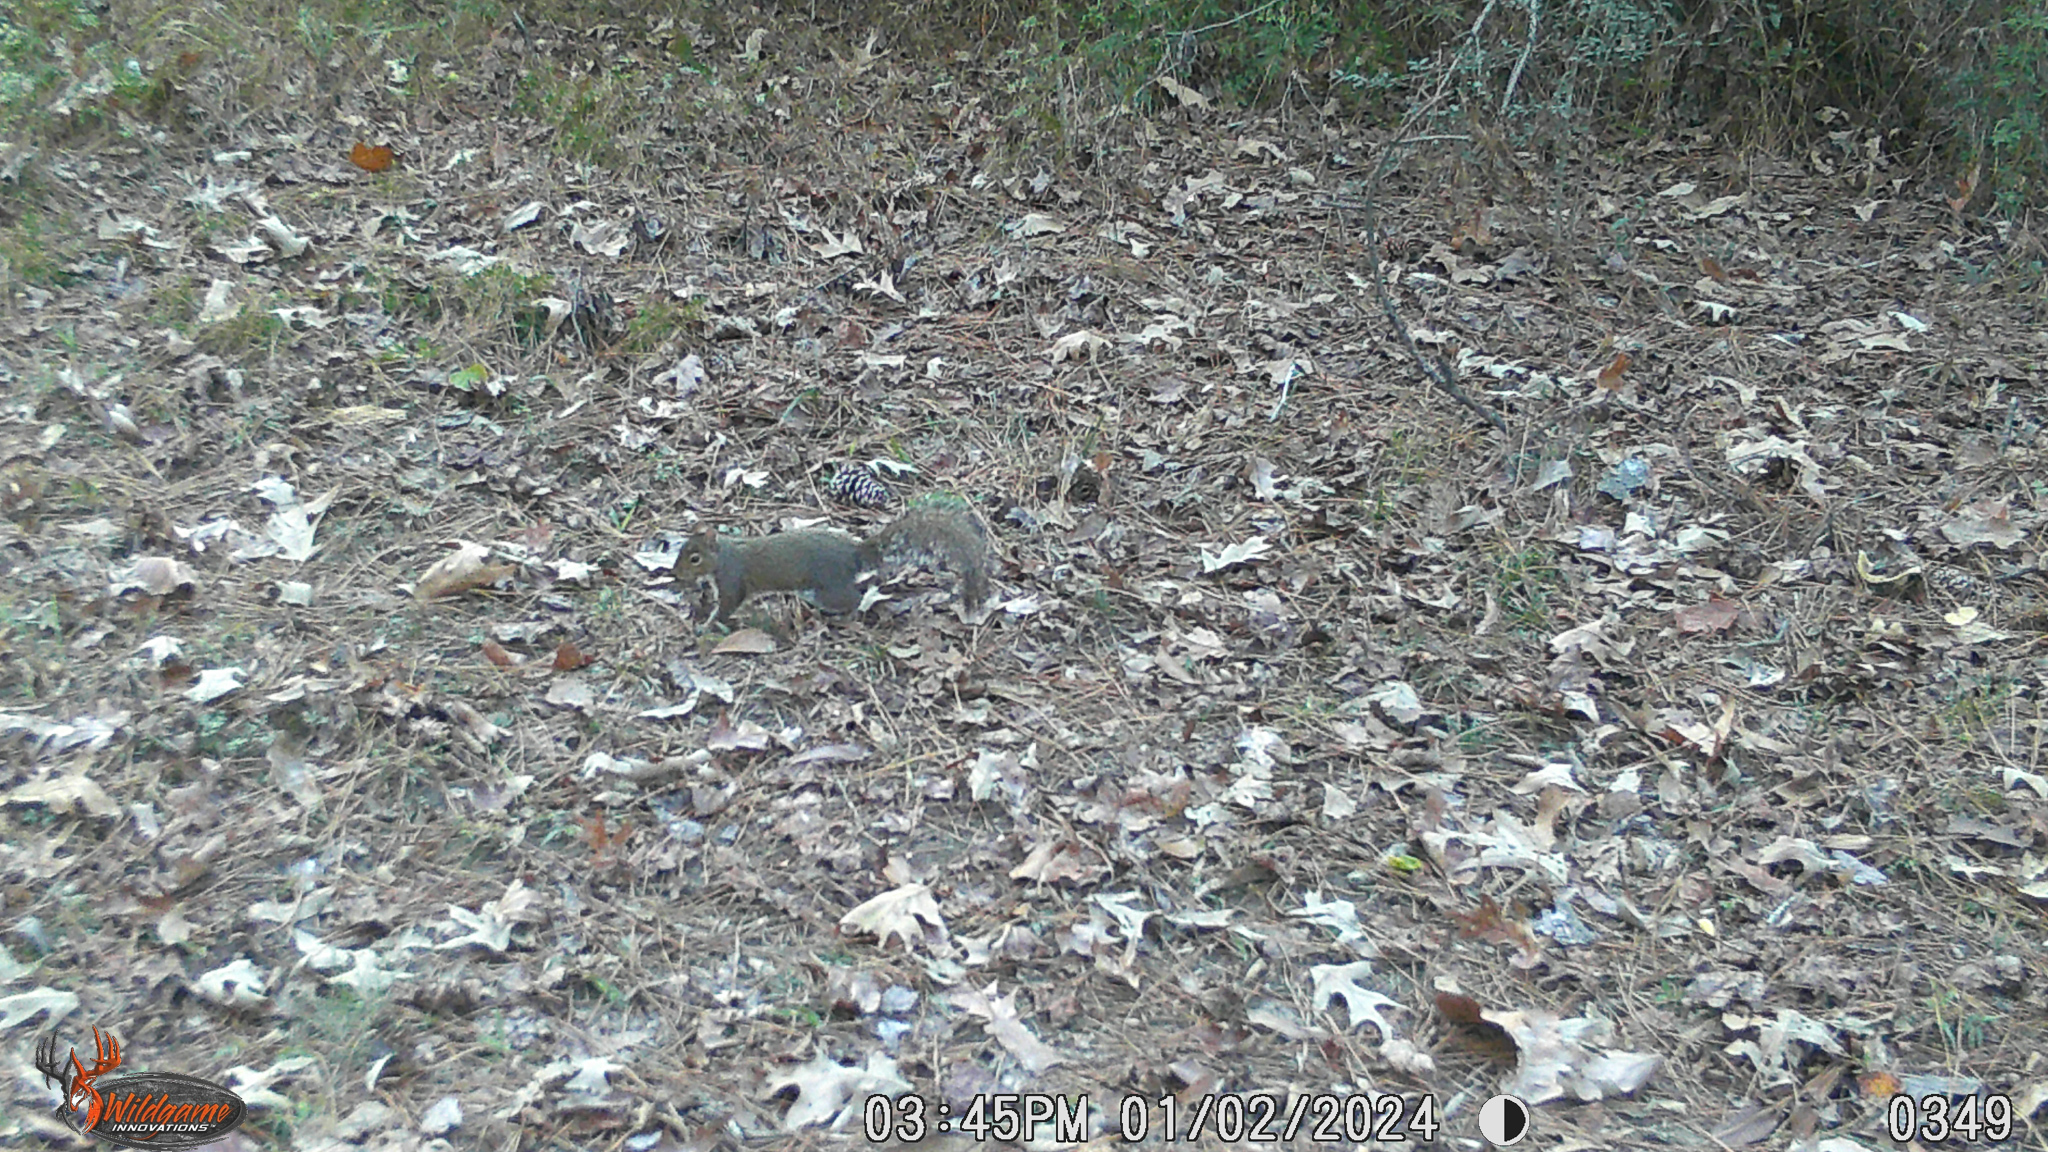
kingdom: Animalia
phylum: Chordata
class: Mammalia
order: Rodentia
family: Sciuridae
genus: Sciurus
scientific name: Sciurus carolinensis
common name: Eastern gray squirrel
